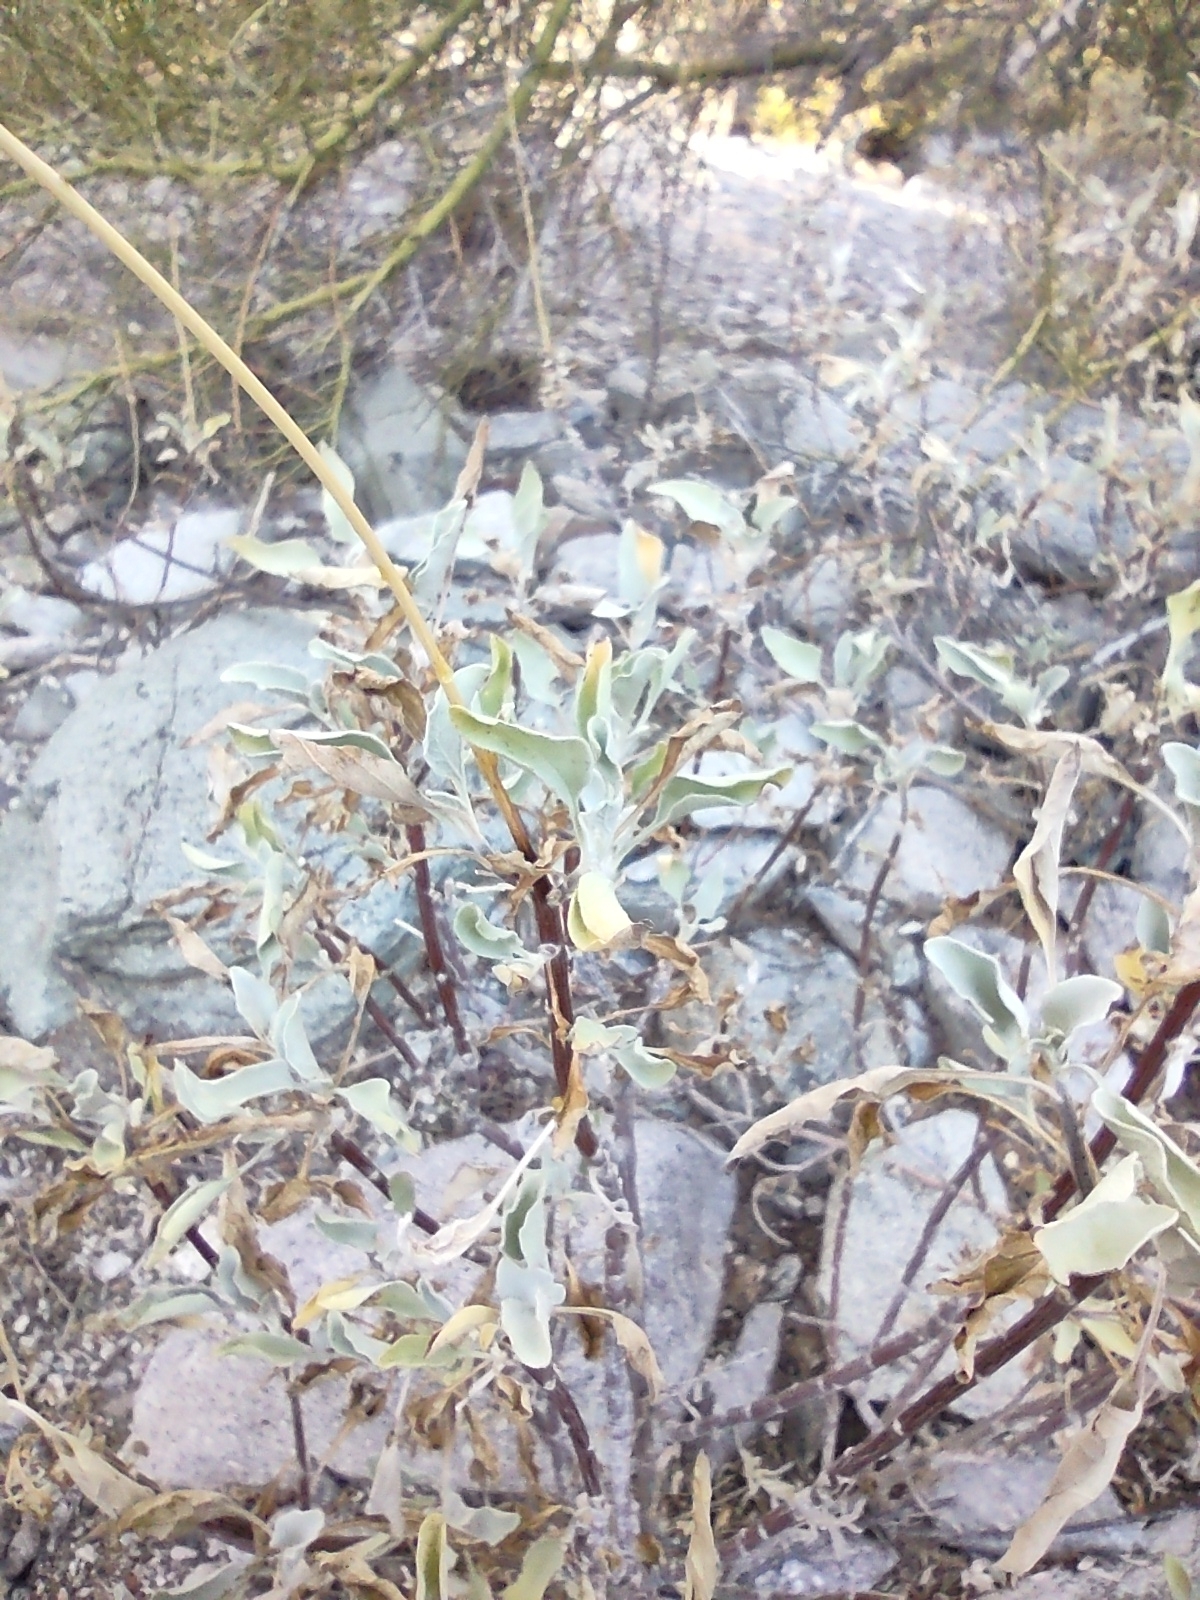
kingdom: Plantae
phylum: Tracheophyta
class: Magnoliopsida
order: Asterales
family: Asteraceae
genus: Encelia
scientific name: Encelia farinosa
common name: Brittlebush
